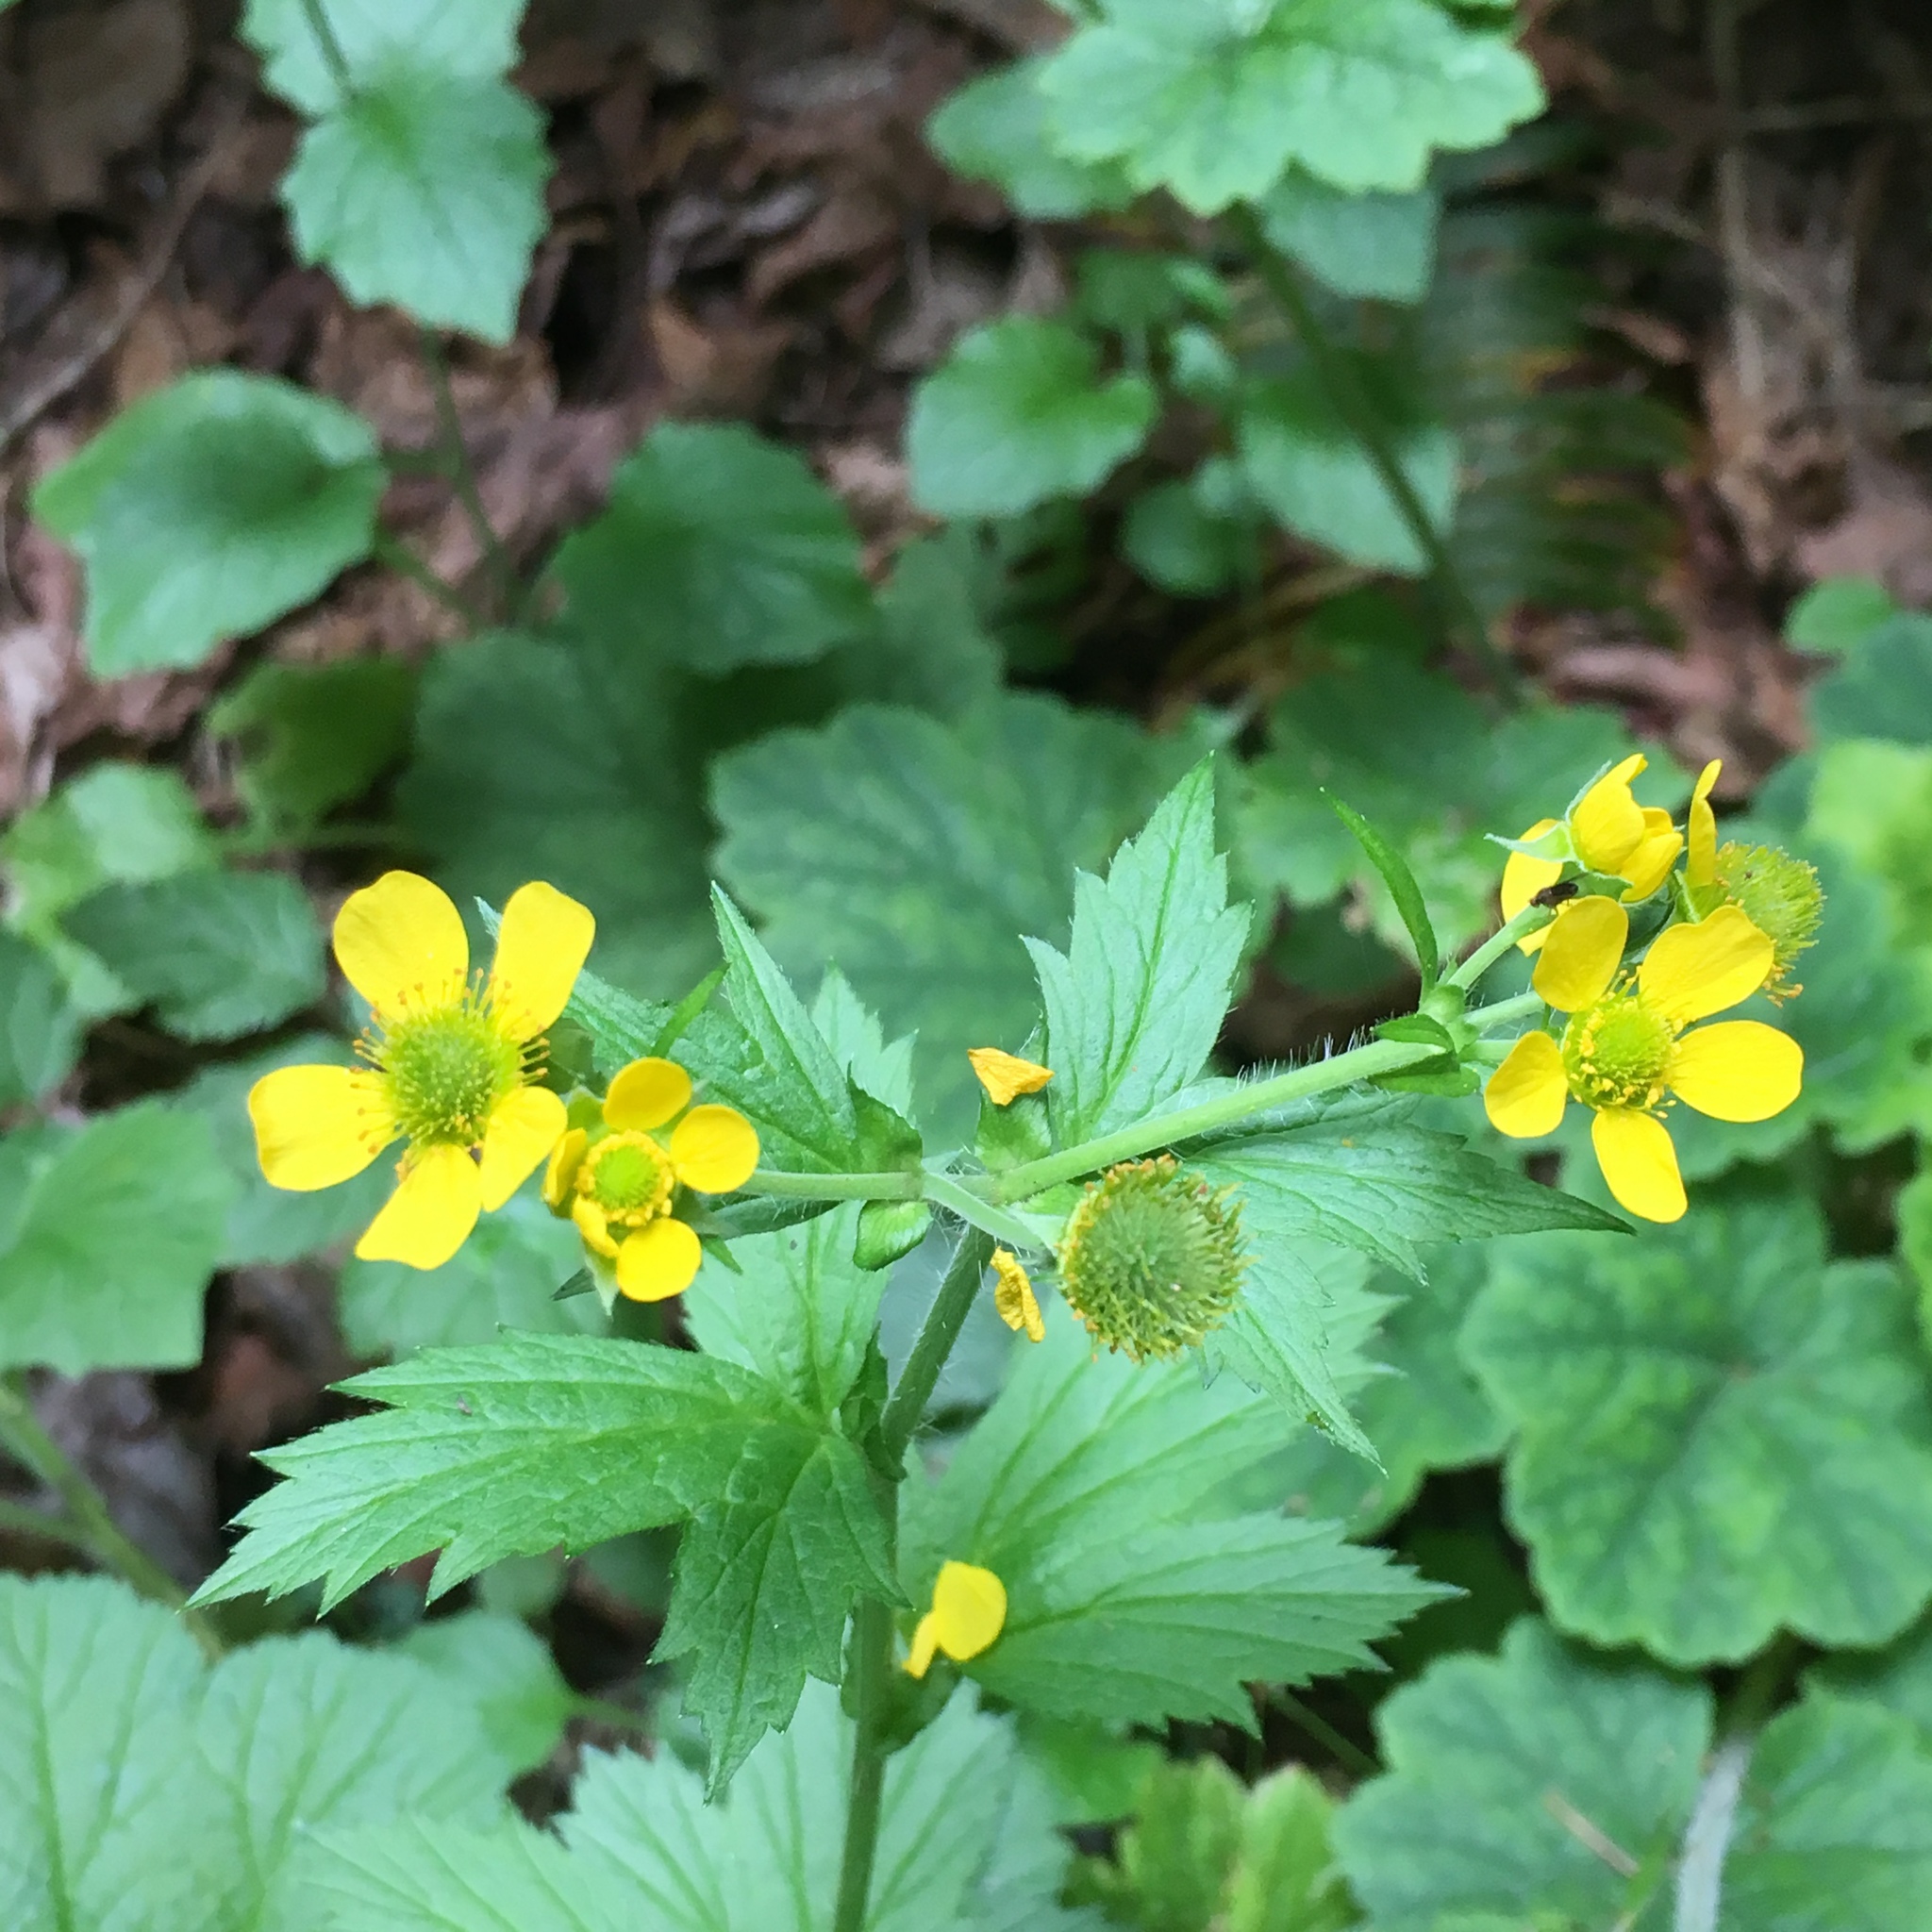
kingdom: Plantae
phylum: Tracheophyta
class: Magnoliopsida
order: Rosales
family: Rosaceae
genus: Geum
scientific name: Geum macrophyllum
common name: Large-leaved avens
